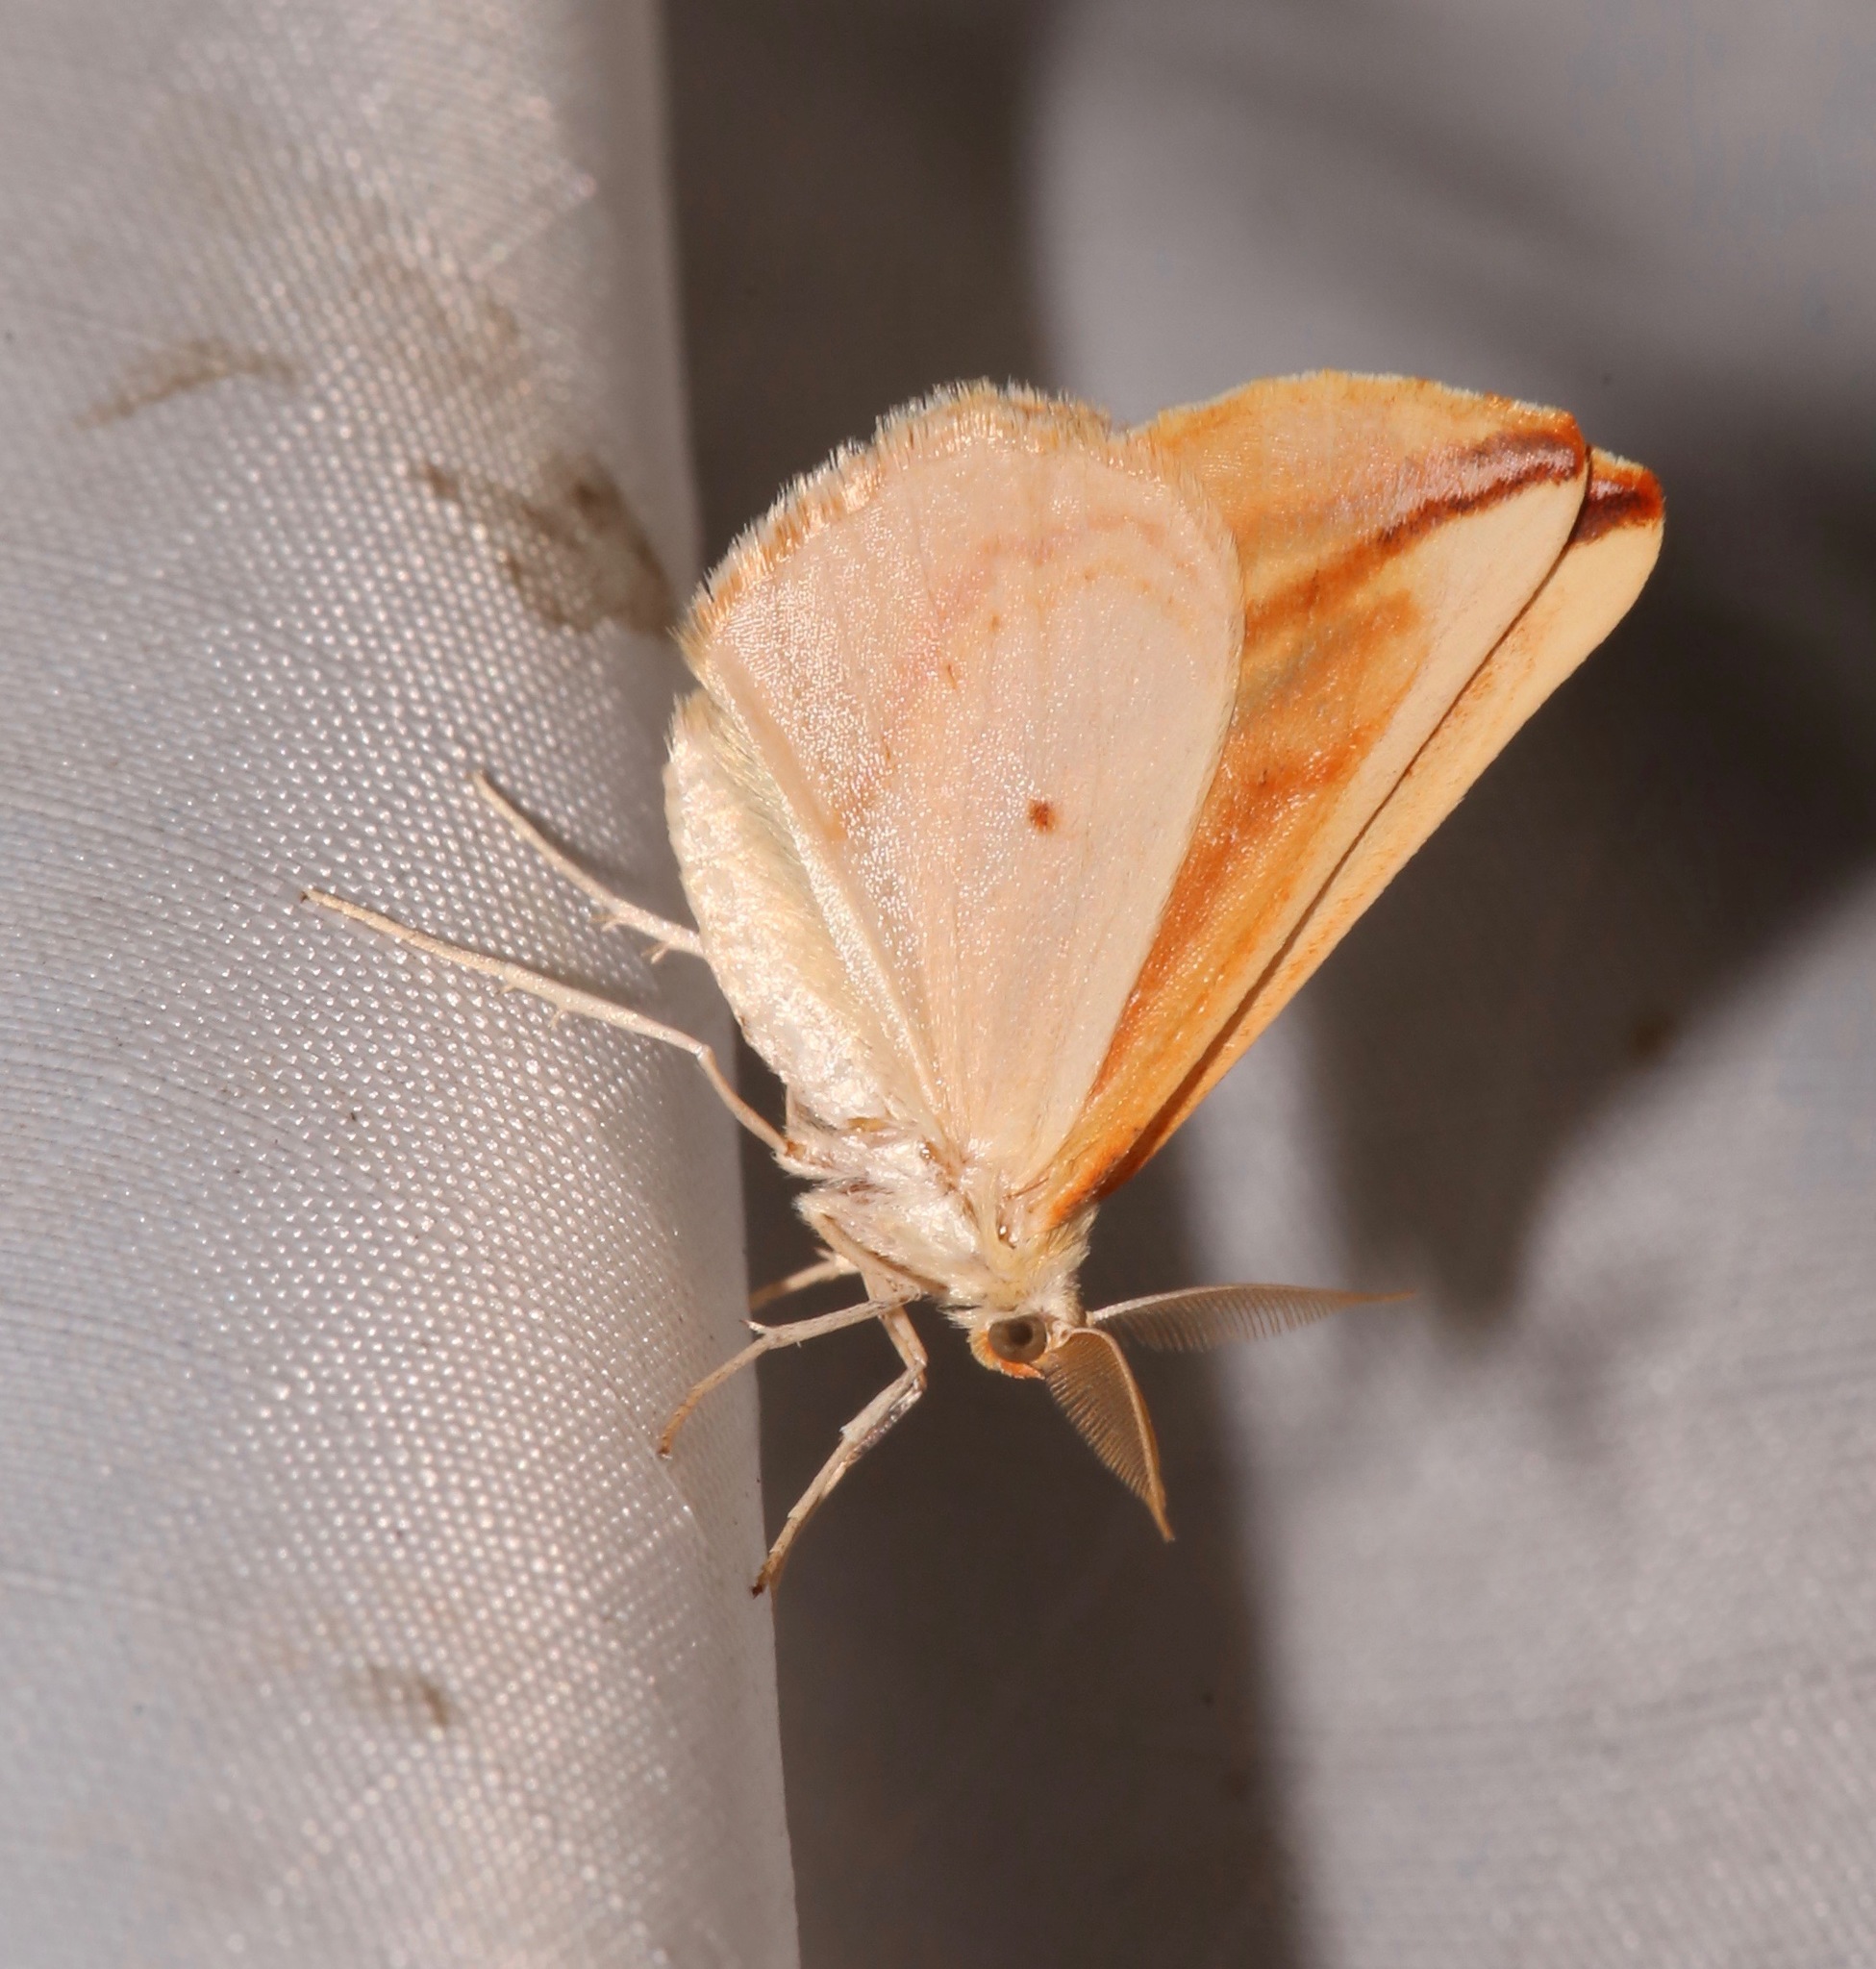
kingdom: Animalia
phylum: Arthropoda
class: Insecta
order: Lepidoptera
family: Geometridae
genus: Melemaea
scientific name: Melemaea magdalena
